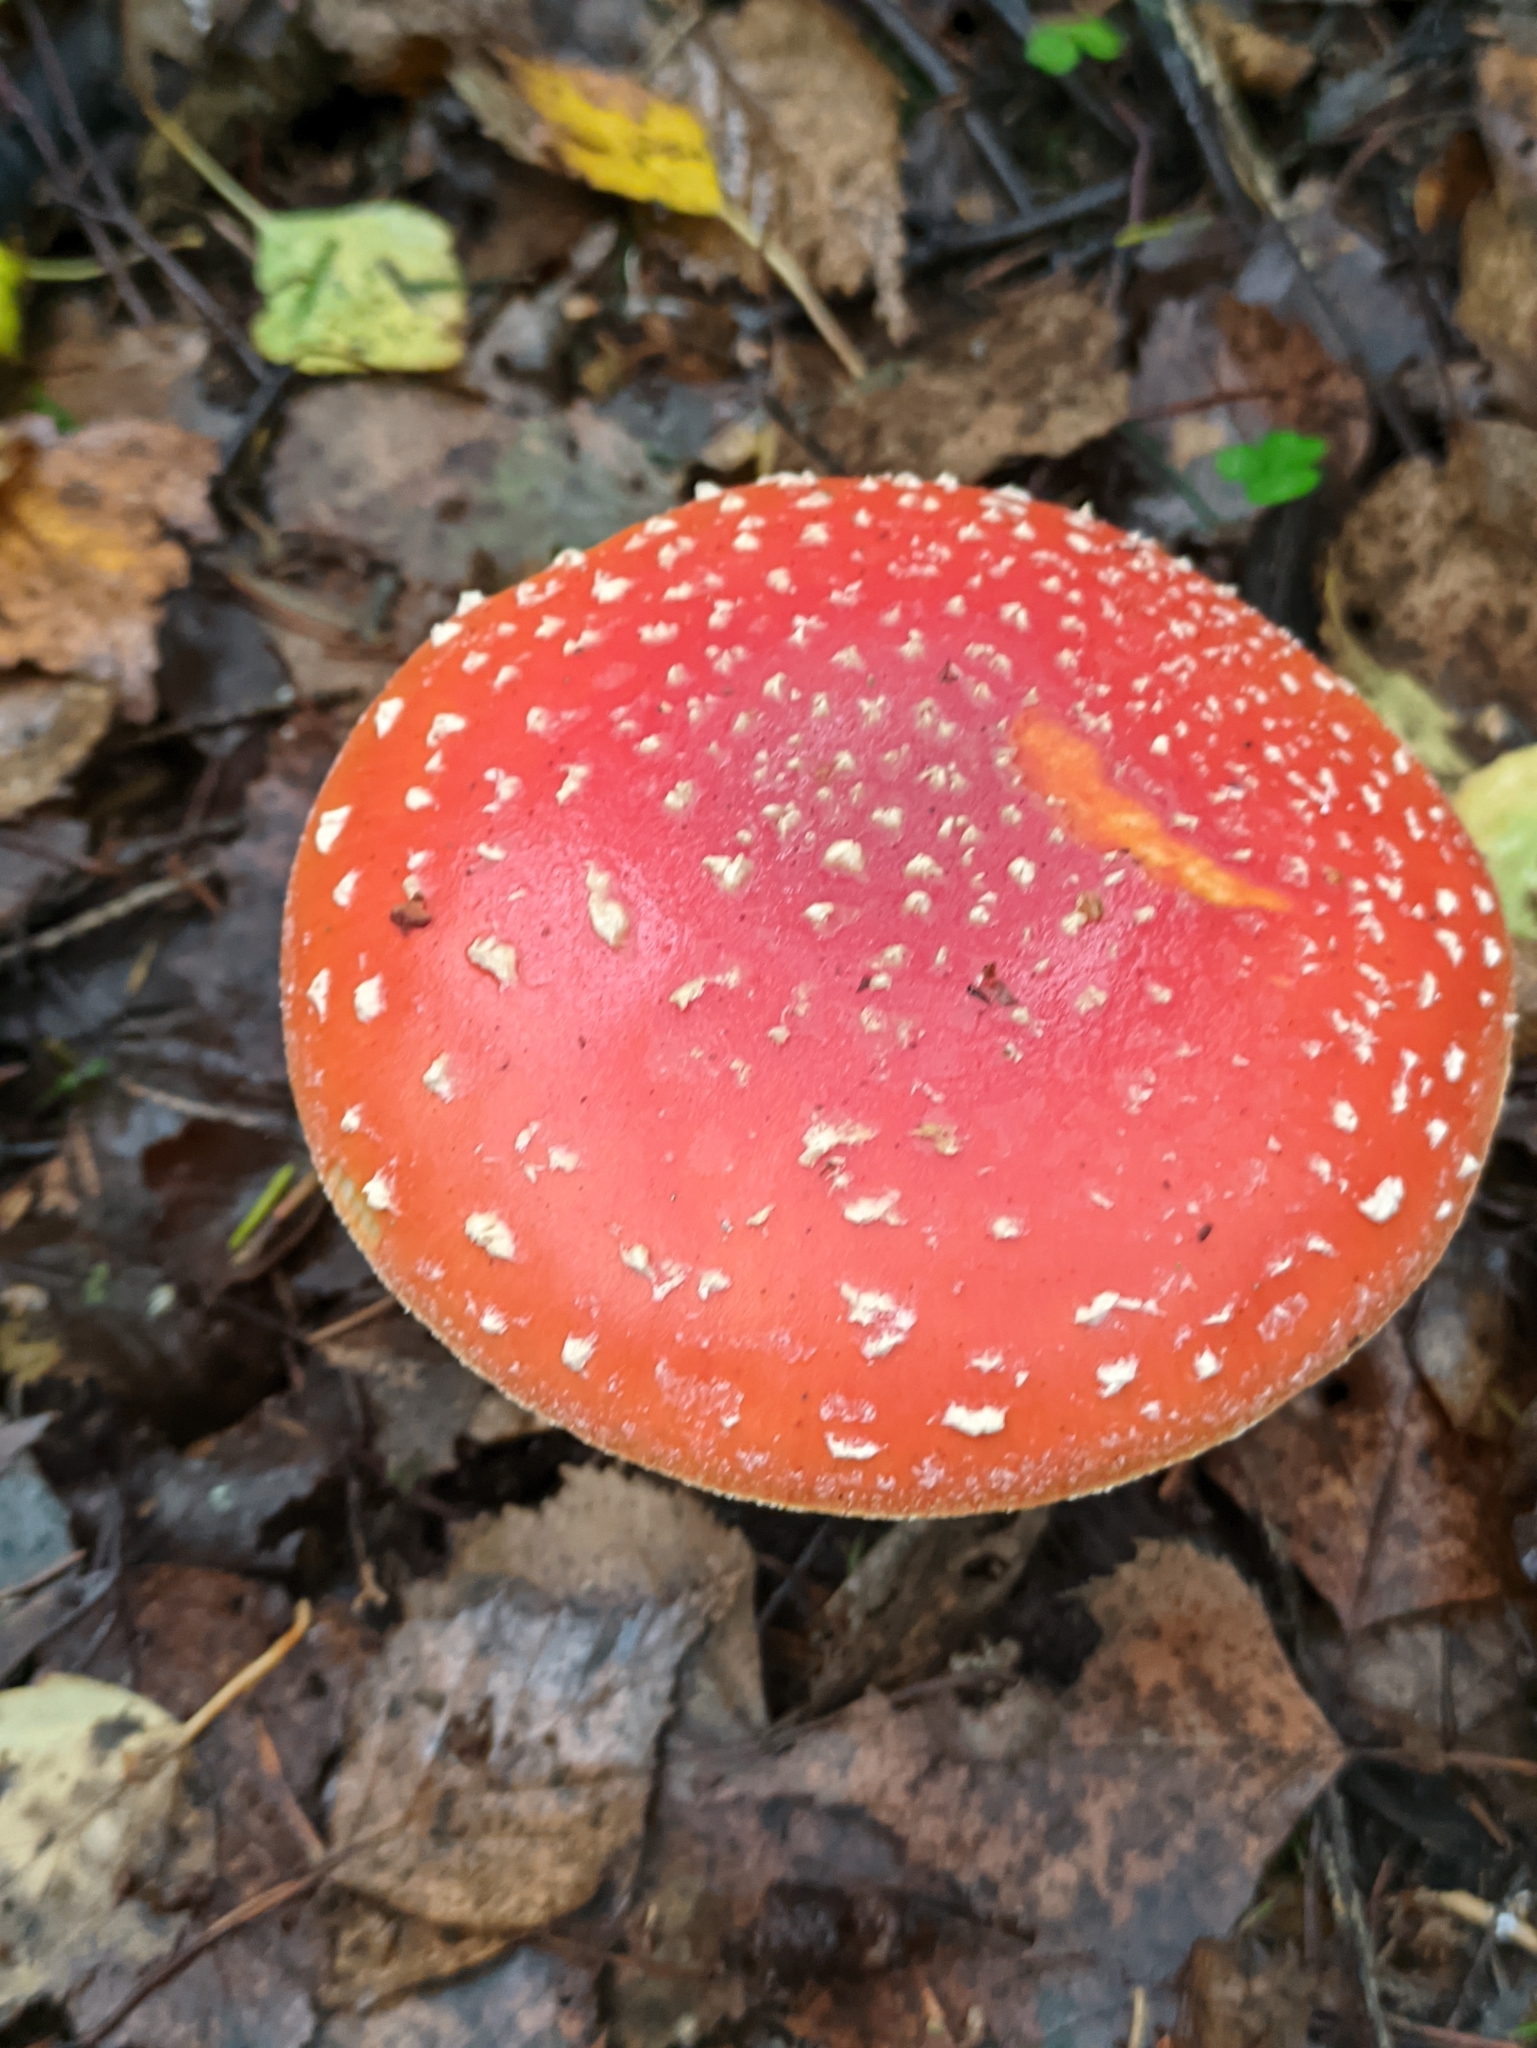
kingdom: Fungi
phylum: Basidiomycota
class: Agaricomycetes
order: Agaricales
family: Amanitaceae
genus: Amanita
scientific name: Amanita muscaria
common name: Fly agaric
